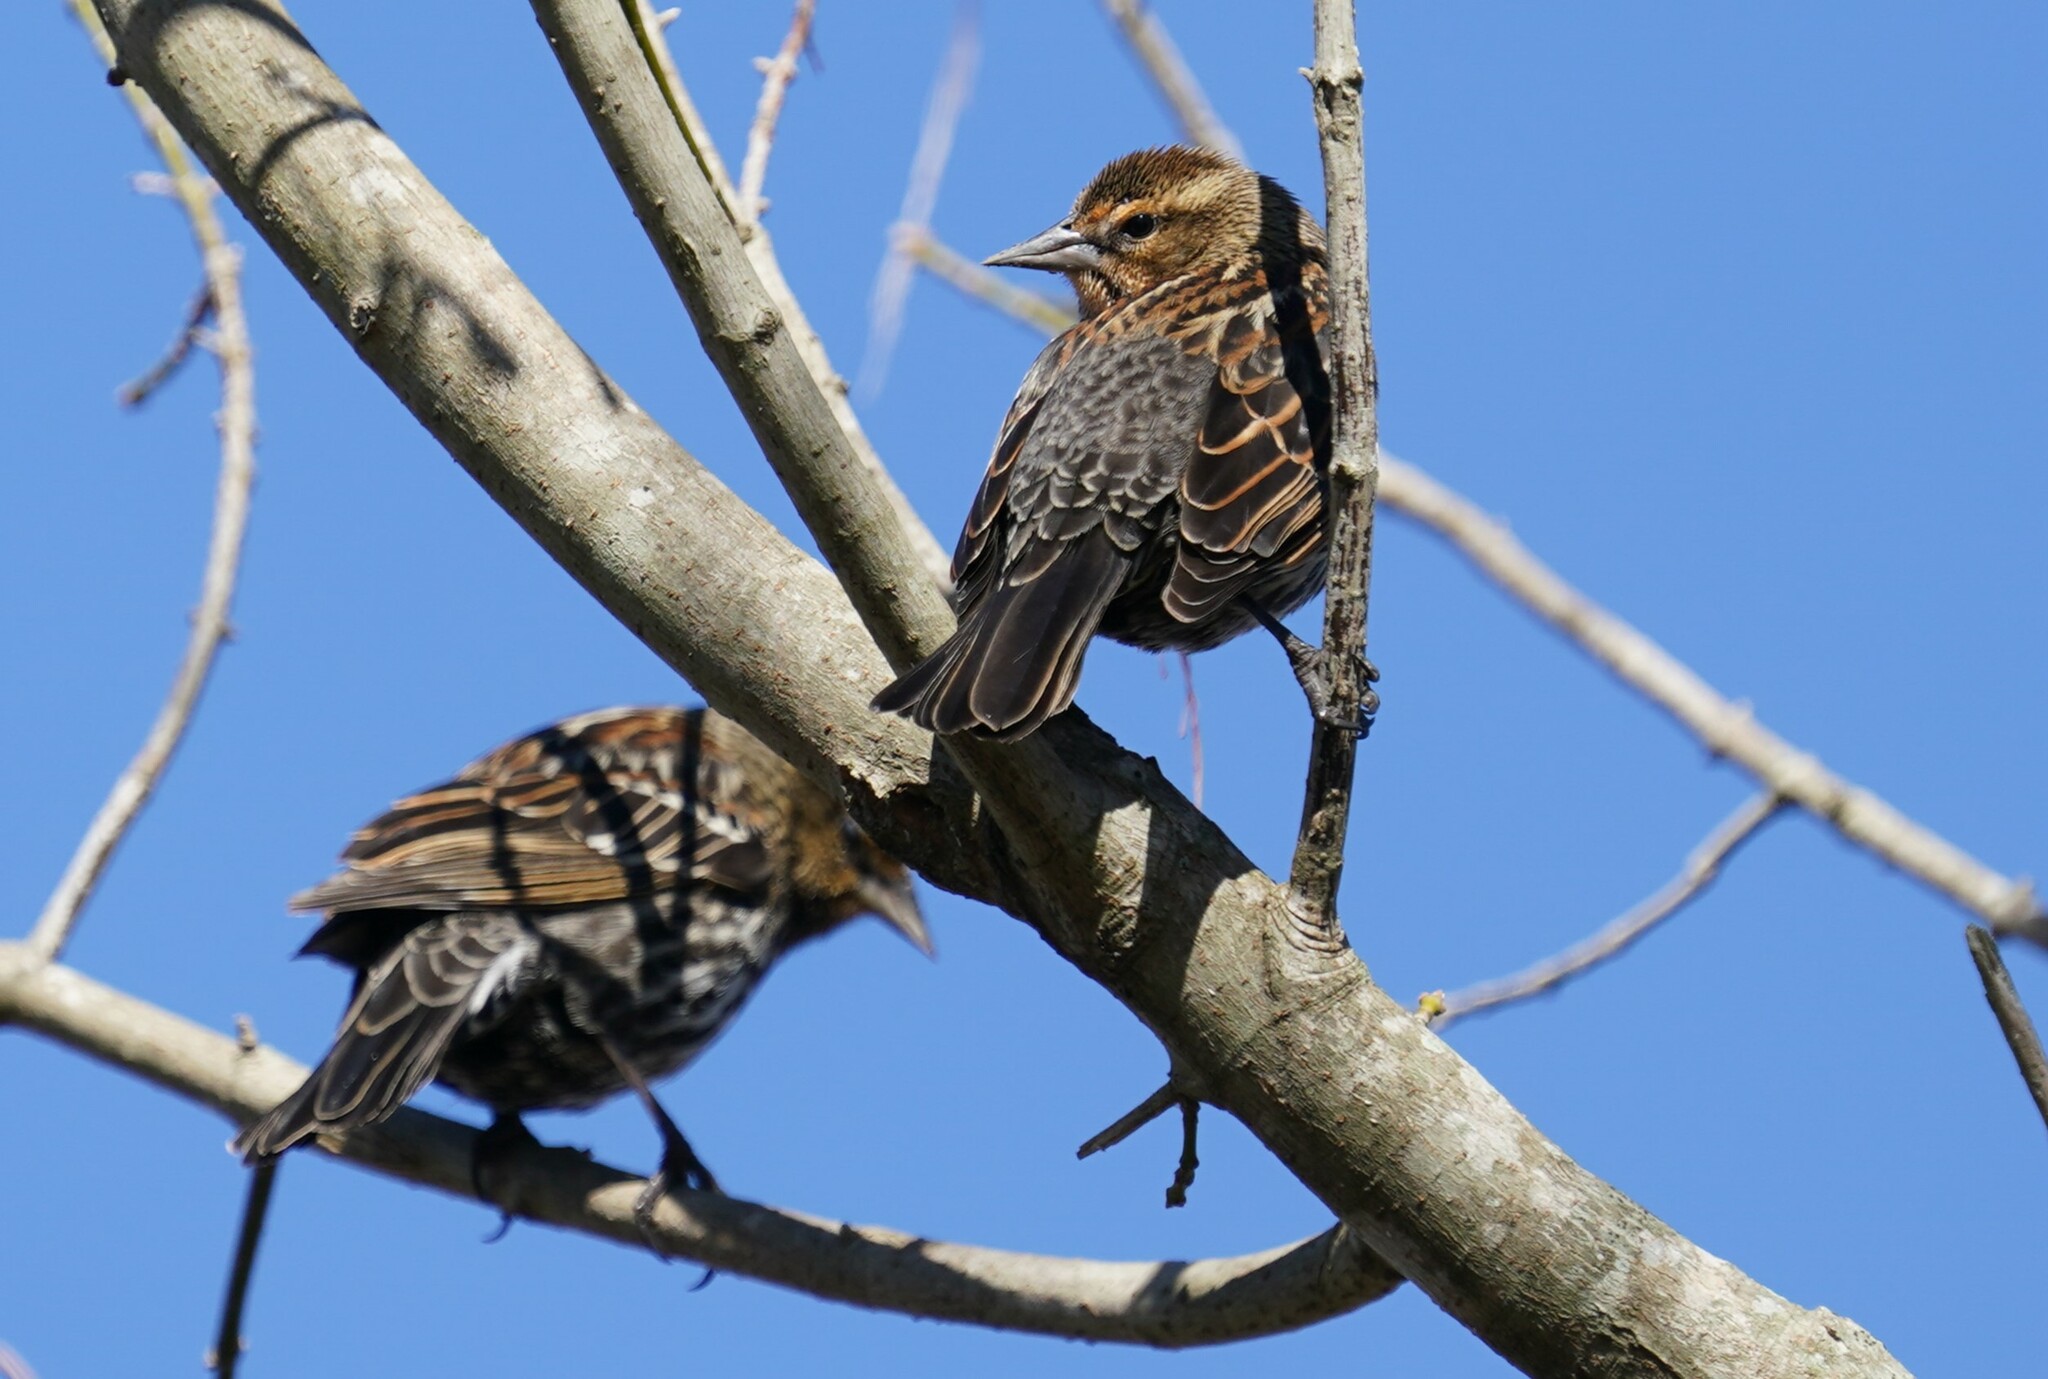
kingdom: Animalia
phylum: Chordata
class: Aves
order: Passeriformes
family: Icteridae
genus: Agelaius
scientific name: Agelaius phoeniceus
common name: Red-winged blackbird
